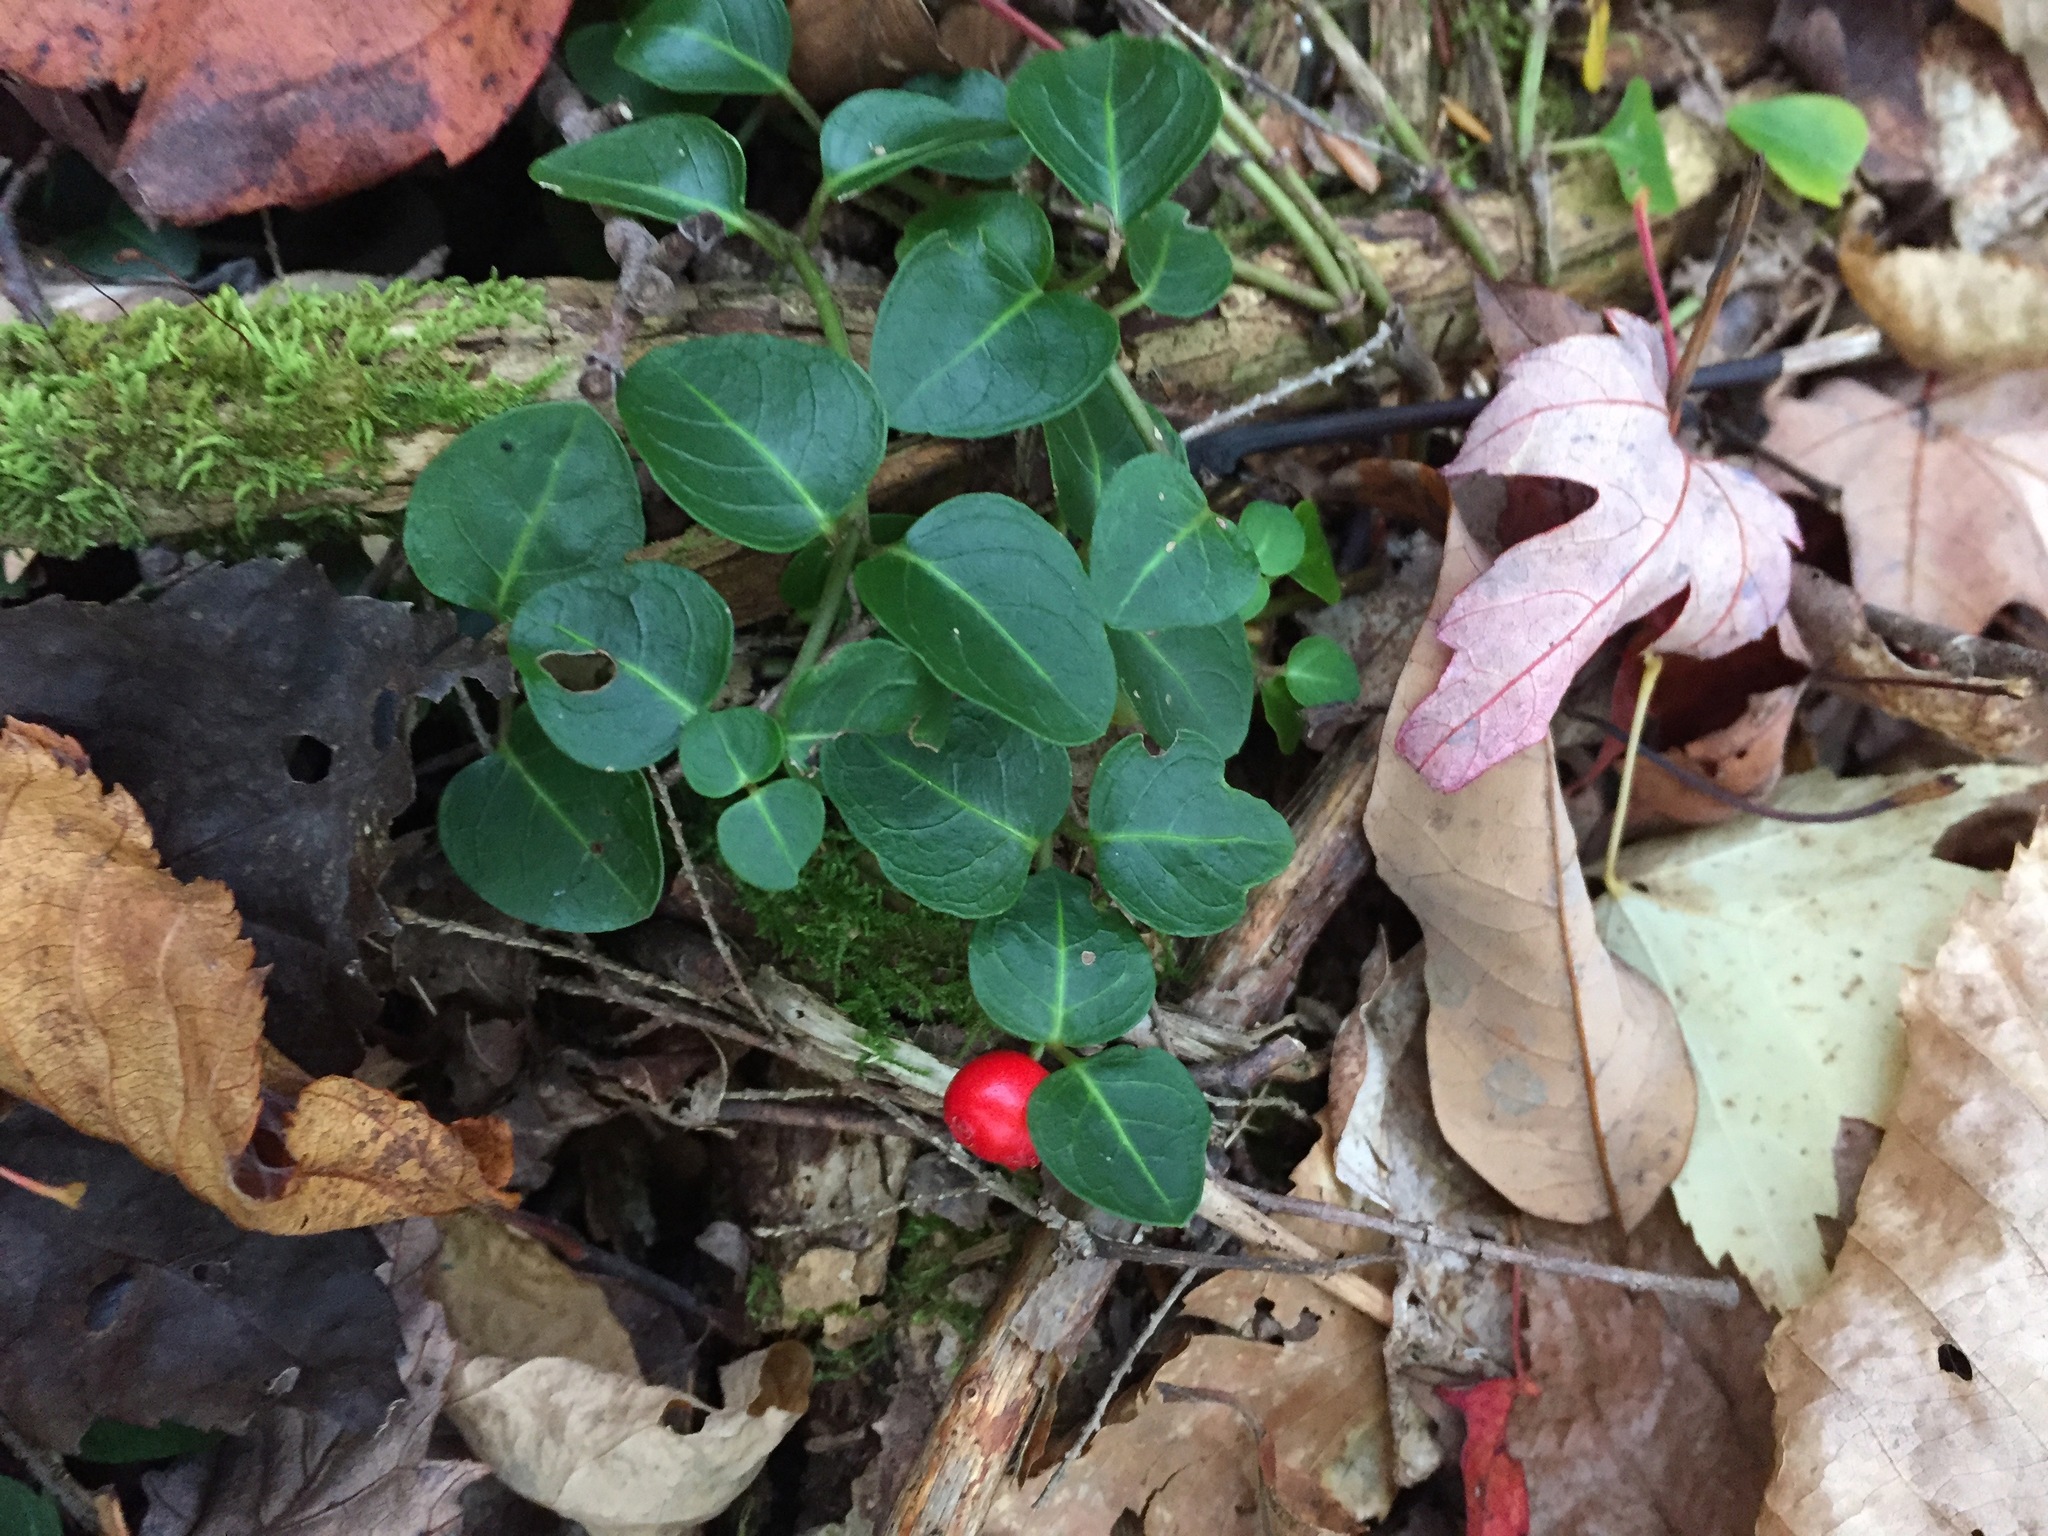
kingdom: Plantae
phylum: Tracheophyta
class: Magnoliopsida
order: Gentianales
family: Rubiaceae
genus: Mitchella
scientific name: Mitchella repens
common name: Partridge-berry
